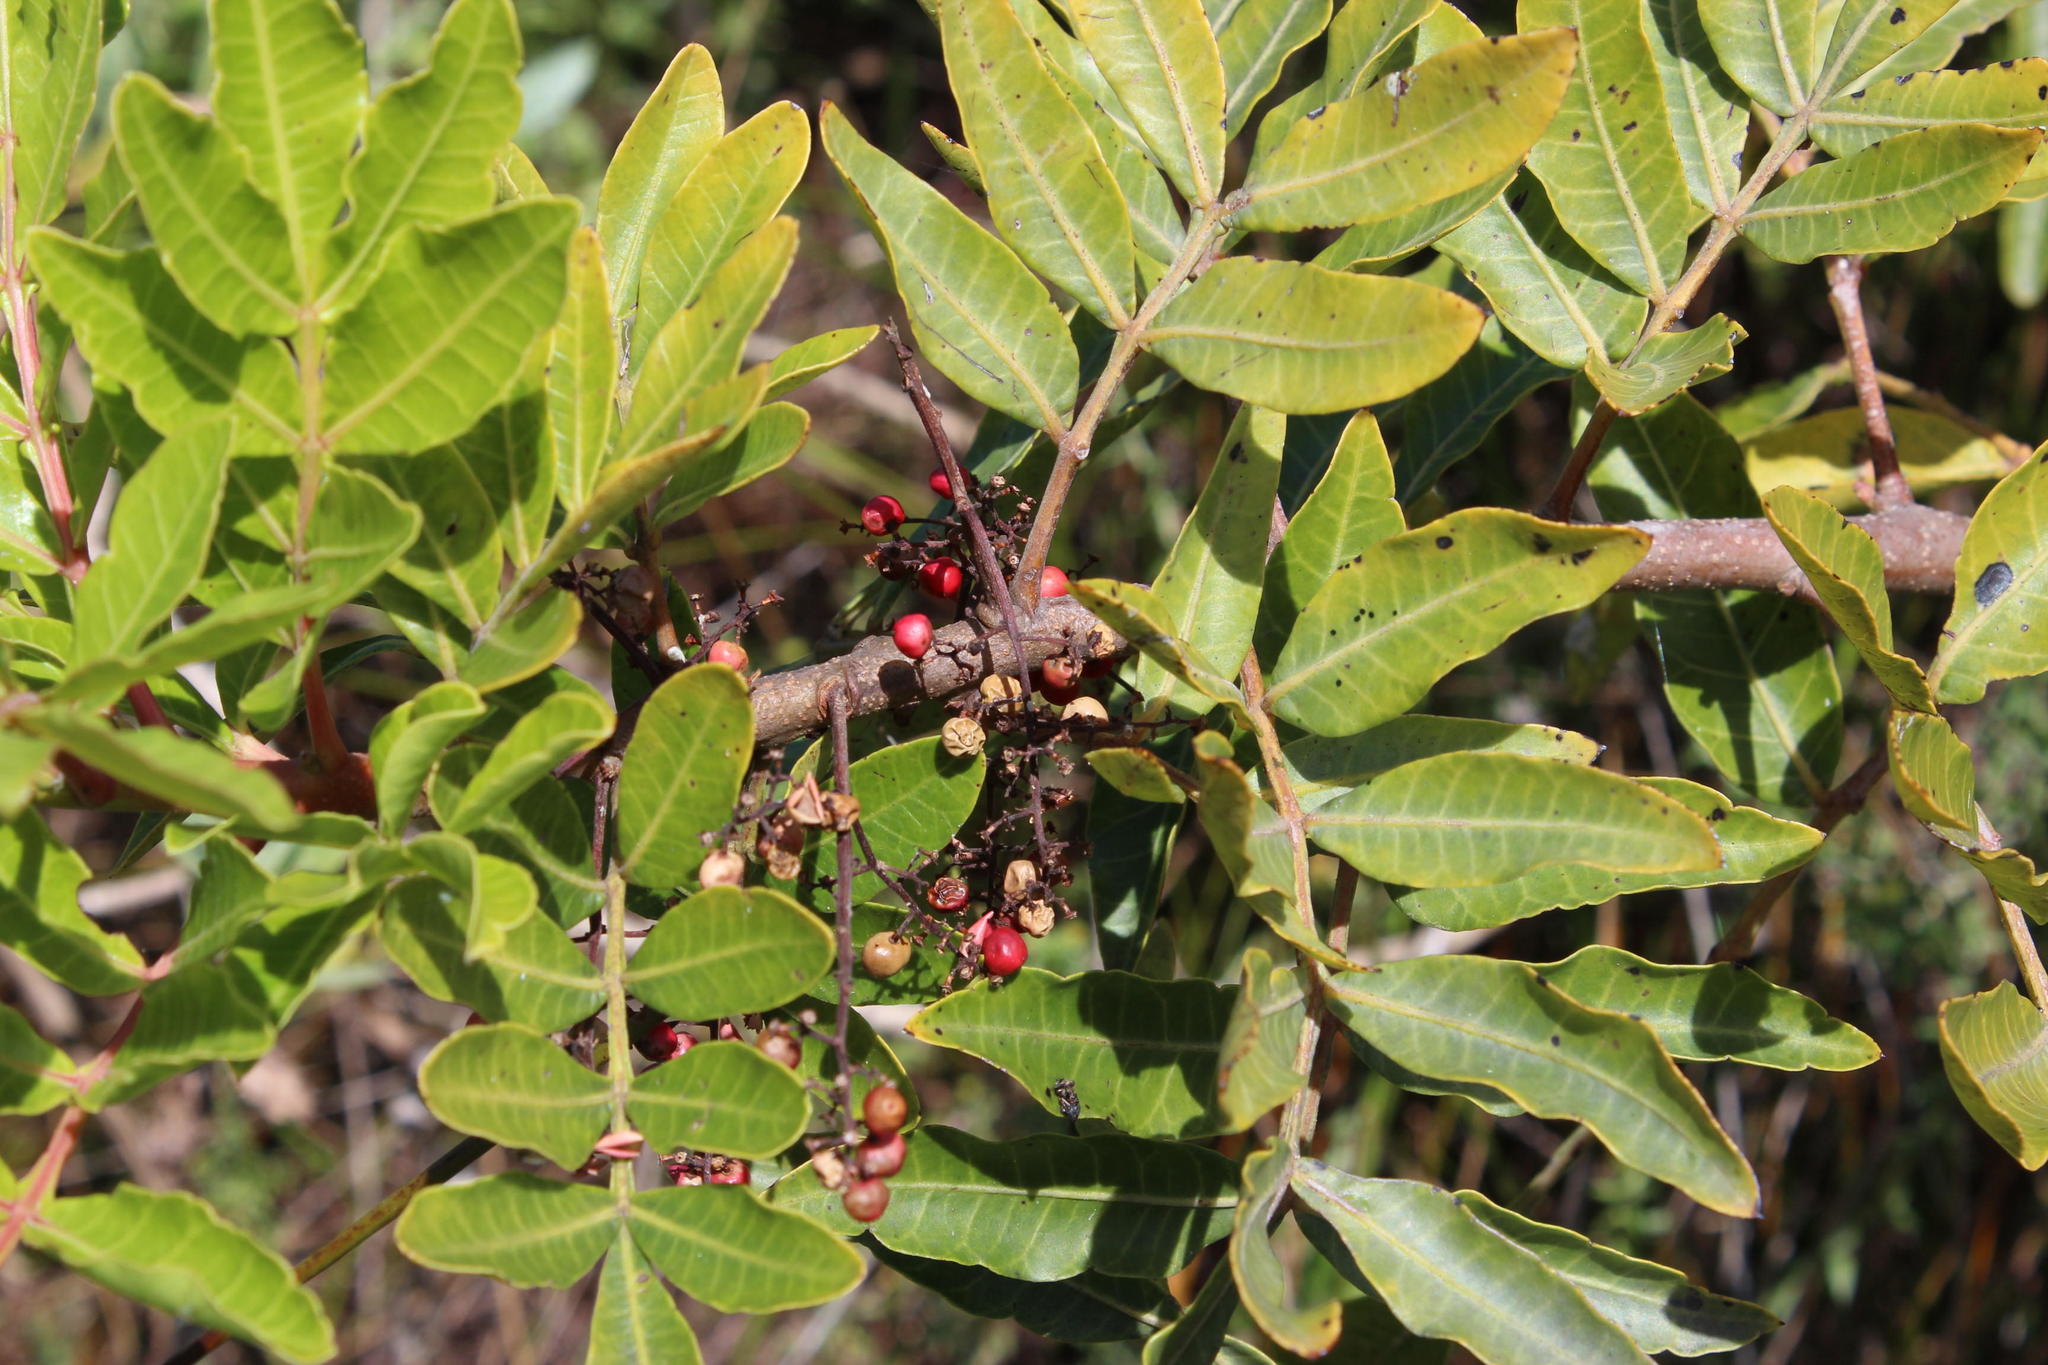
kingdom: Plantae
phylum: Tracheophyta
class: Magnoliopsida
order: Sapindales
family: Anacardiaceae
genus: Schinus
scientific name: Schinus terebinthifolia
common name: Brazilian peppertree
